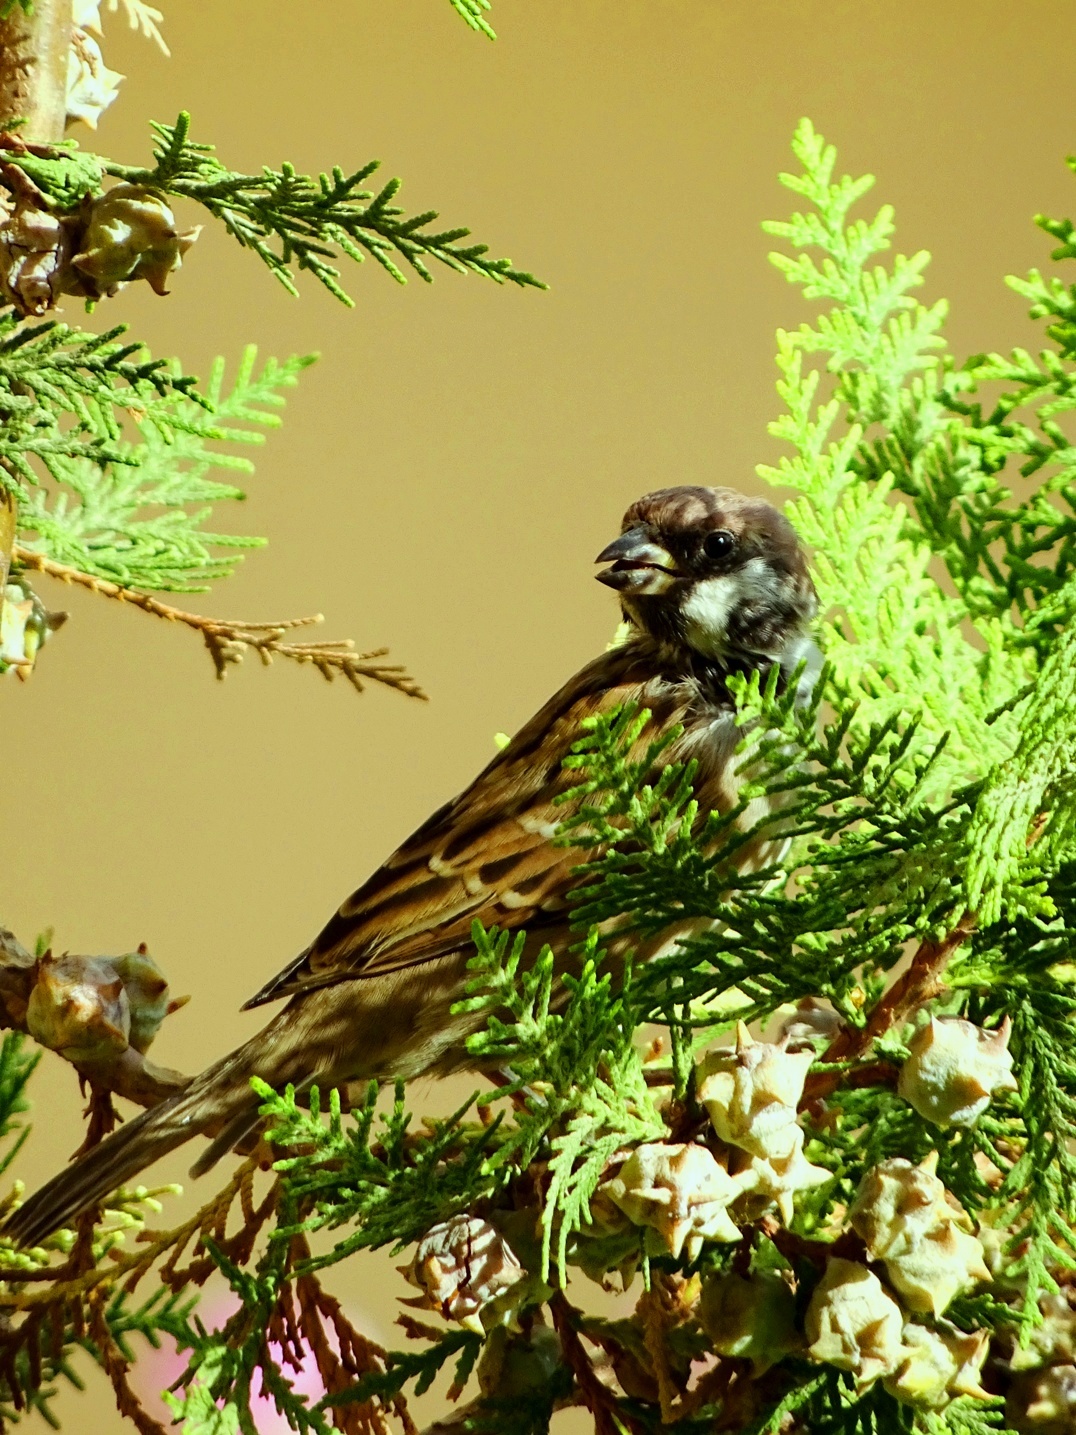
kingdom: Animalia
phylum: Chordata
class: Aves
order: Passeriformes
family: Passeridae
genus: Passer
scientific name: Passer montanus
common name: Eurasian tree sparrow
